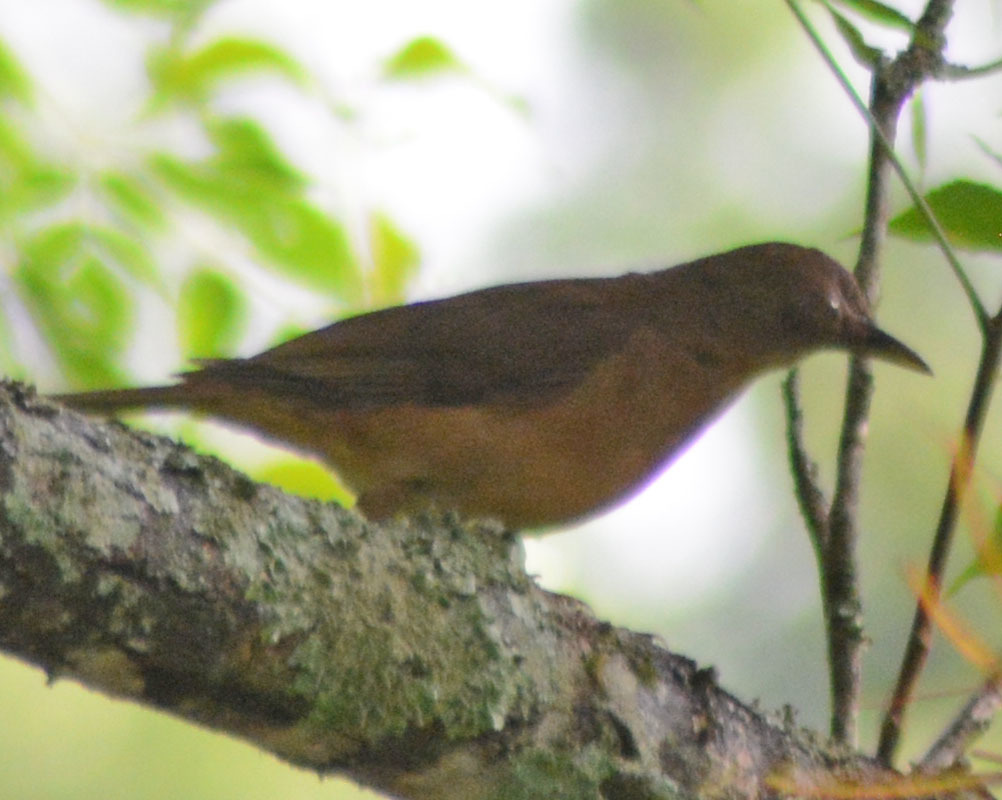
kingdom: Animalia
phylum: Chordata
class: Aves
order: Passeriformes
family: Turdidae
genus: Turdus
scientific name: Turdus grayi
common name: Clay-colored thrush
